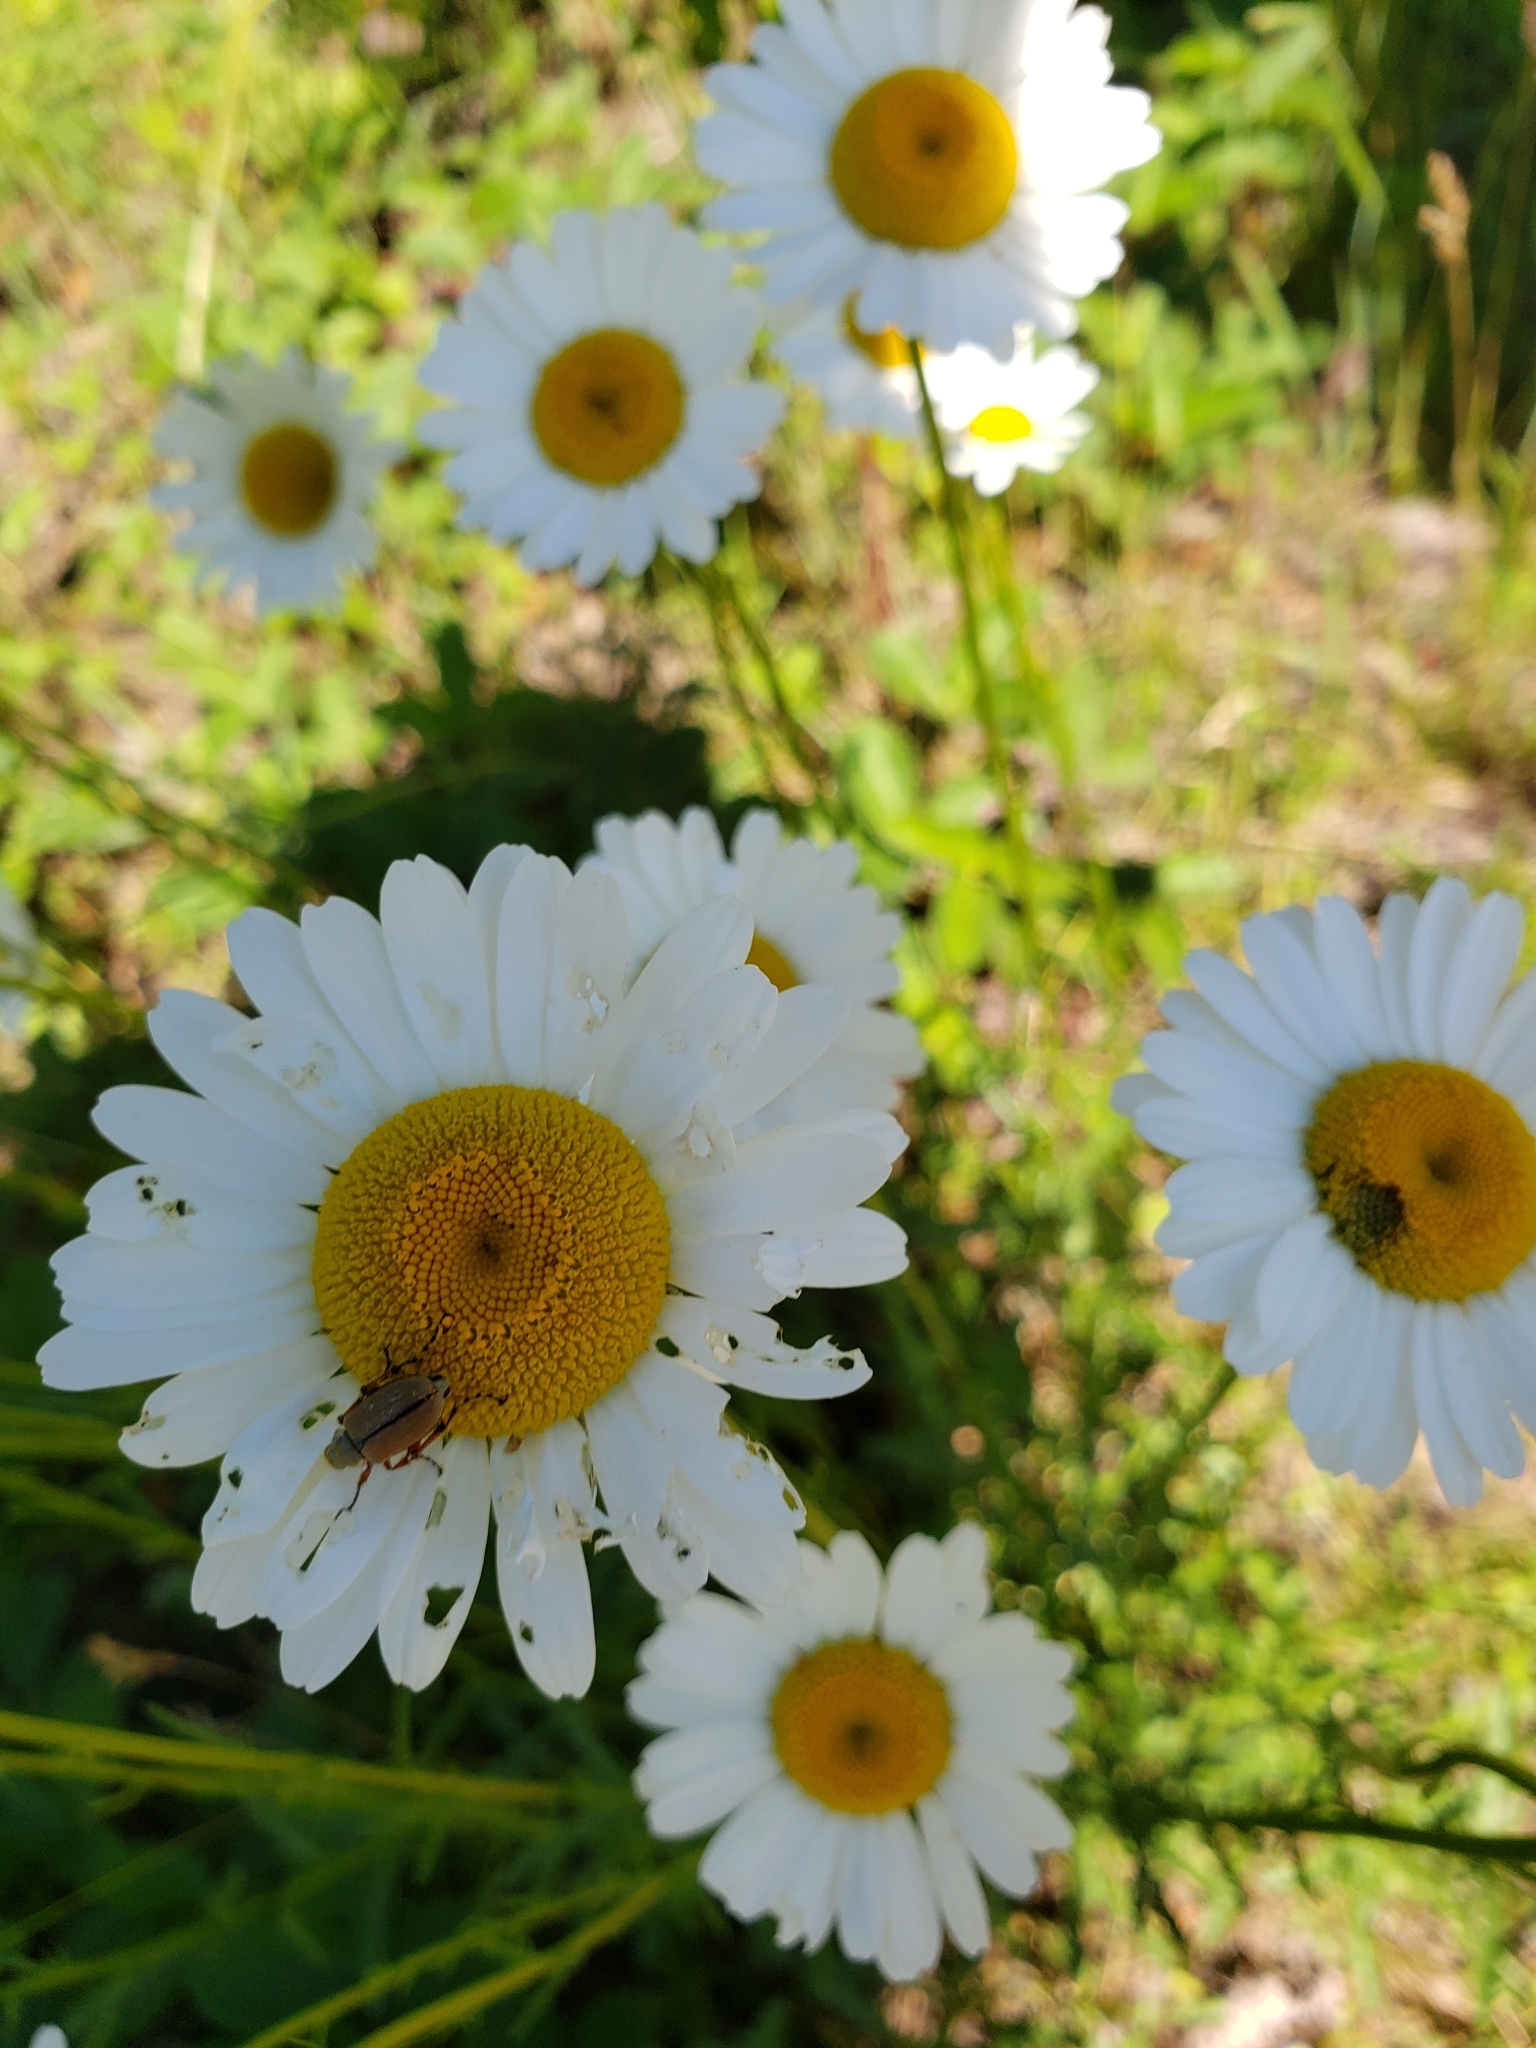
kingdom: Animalia
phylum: Arthropoda
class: Insecta
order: Coleoptera
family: Scarabaeidae
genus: Macrodactylus
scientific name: Macrodactylus subspinosus
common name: American rose chafer
